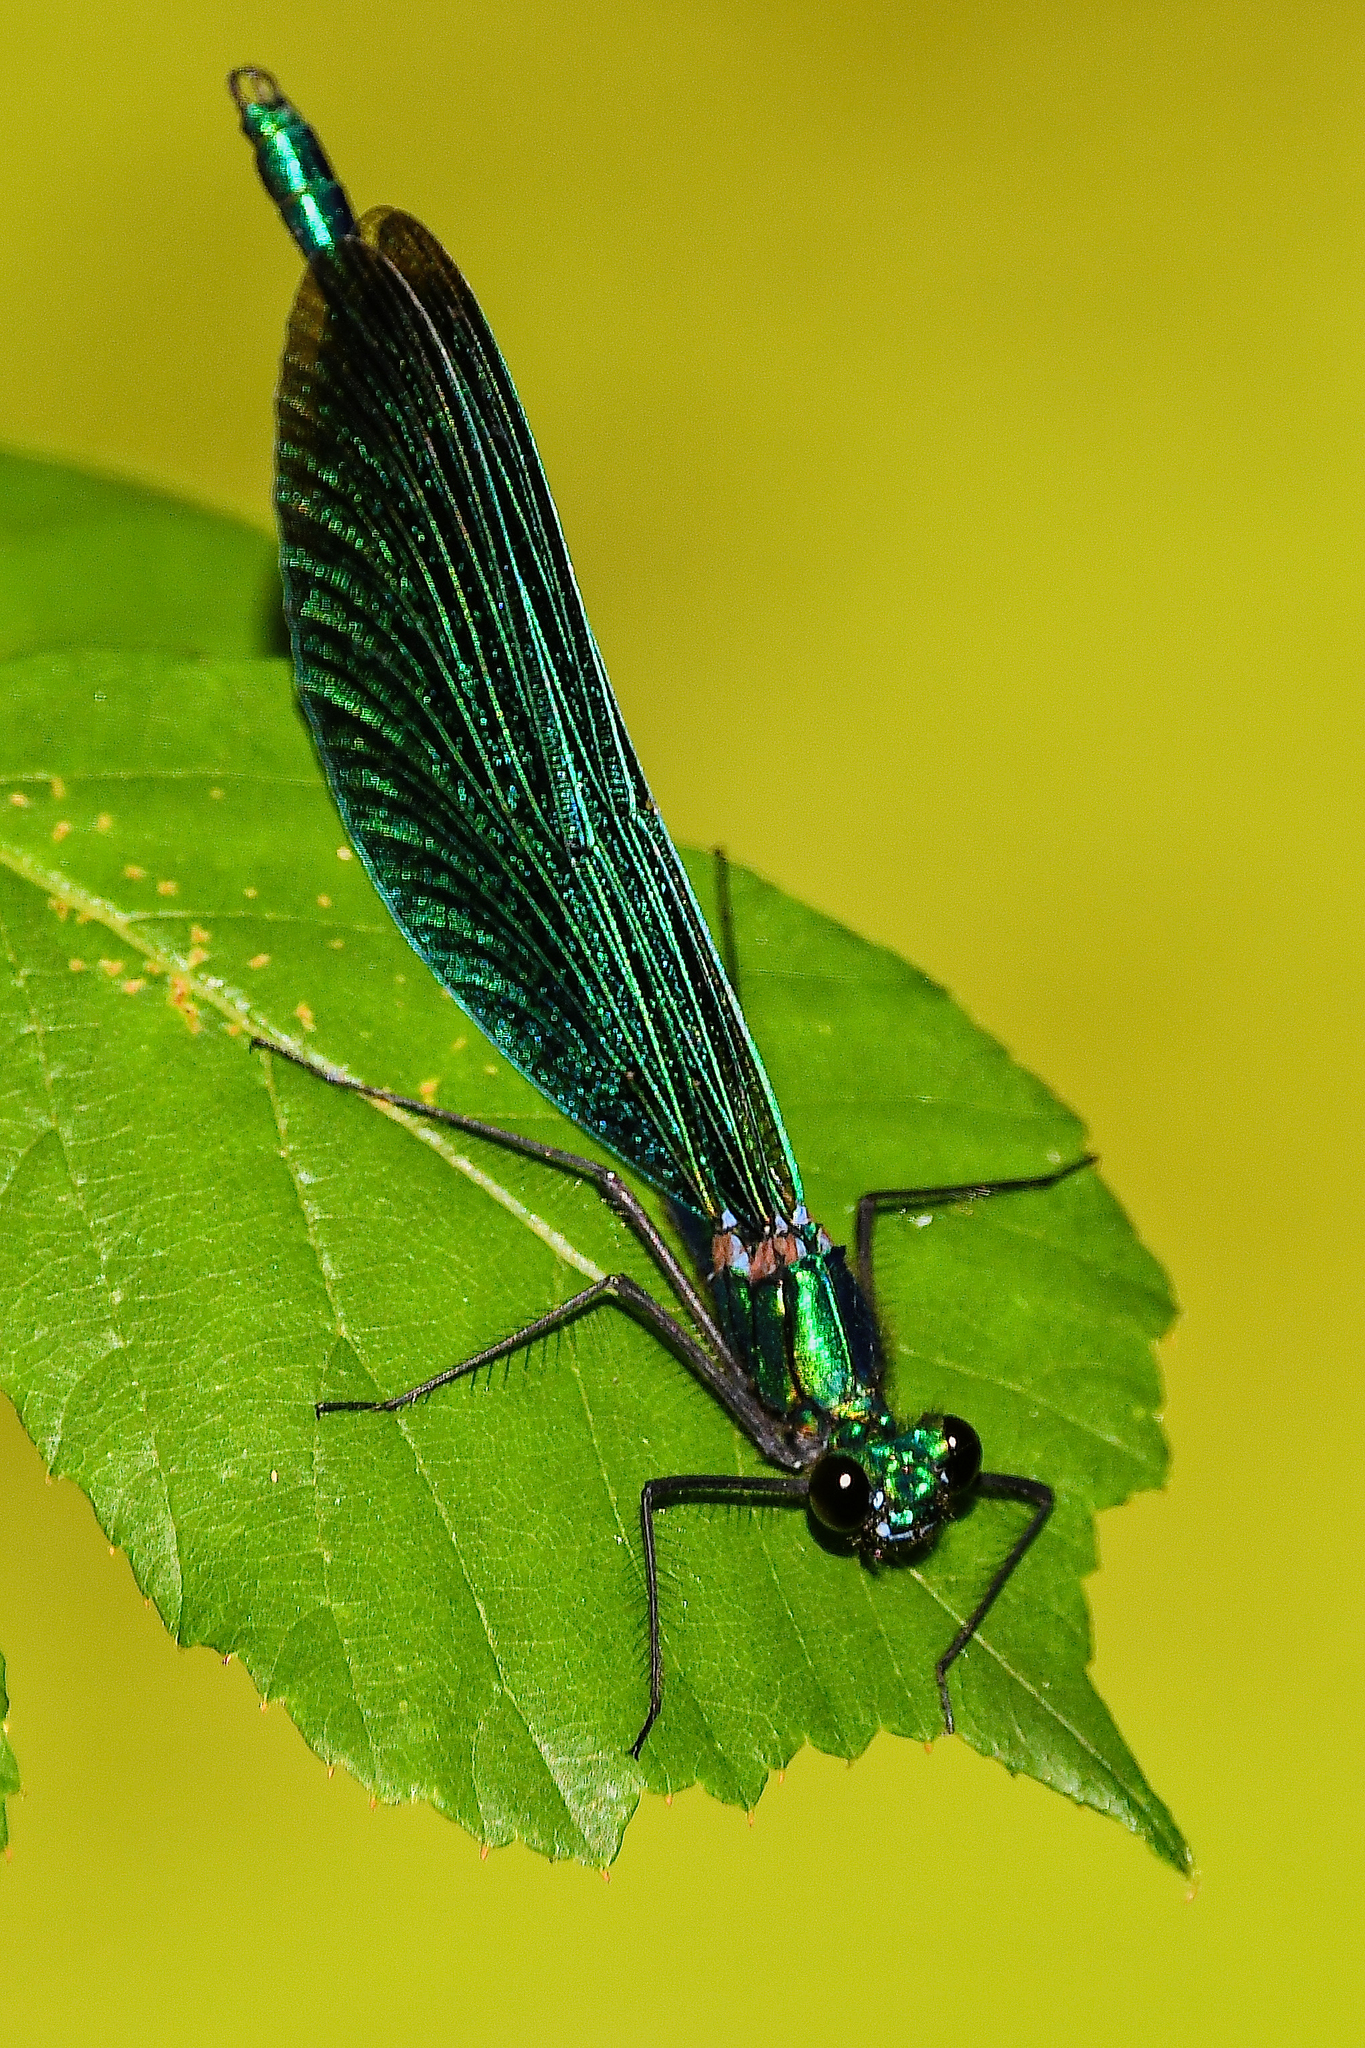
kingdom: Animalia
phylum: Arthropoda
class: Insecta
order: Odonata
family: Calopterygidae
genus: Calopteryx
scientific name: Calopteryx virgo
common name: Beautiful demoiselle
